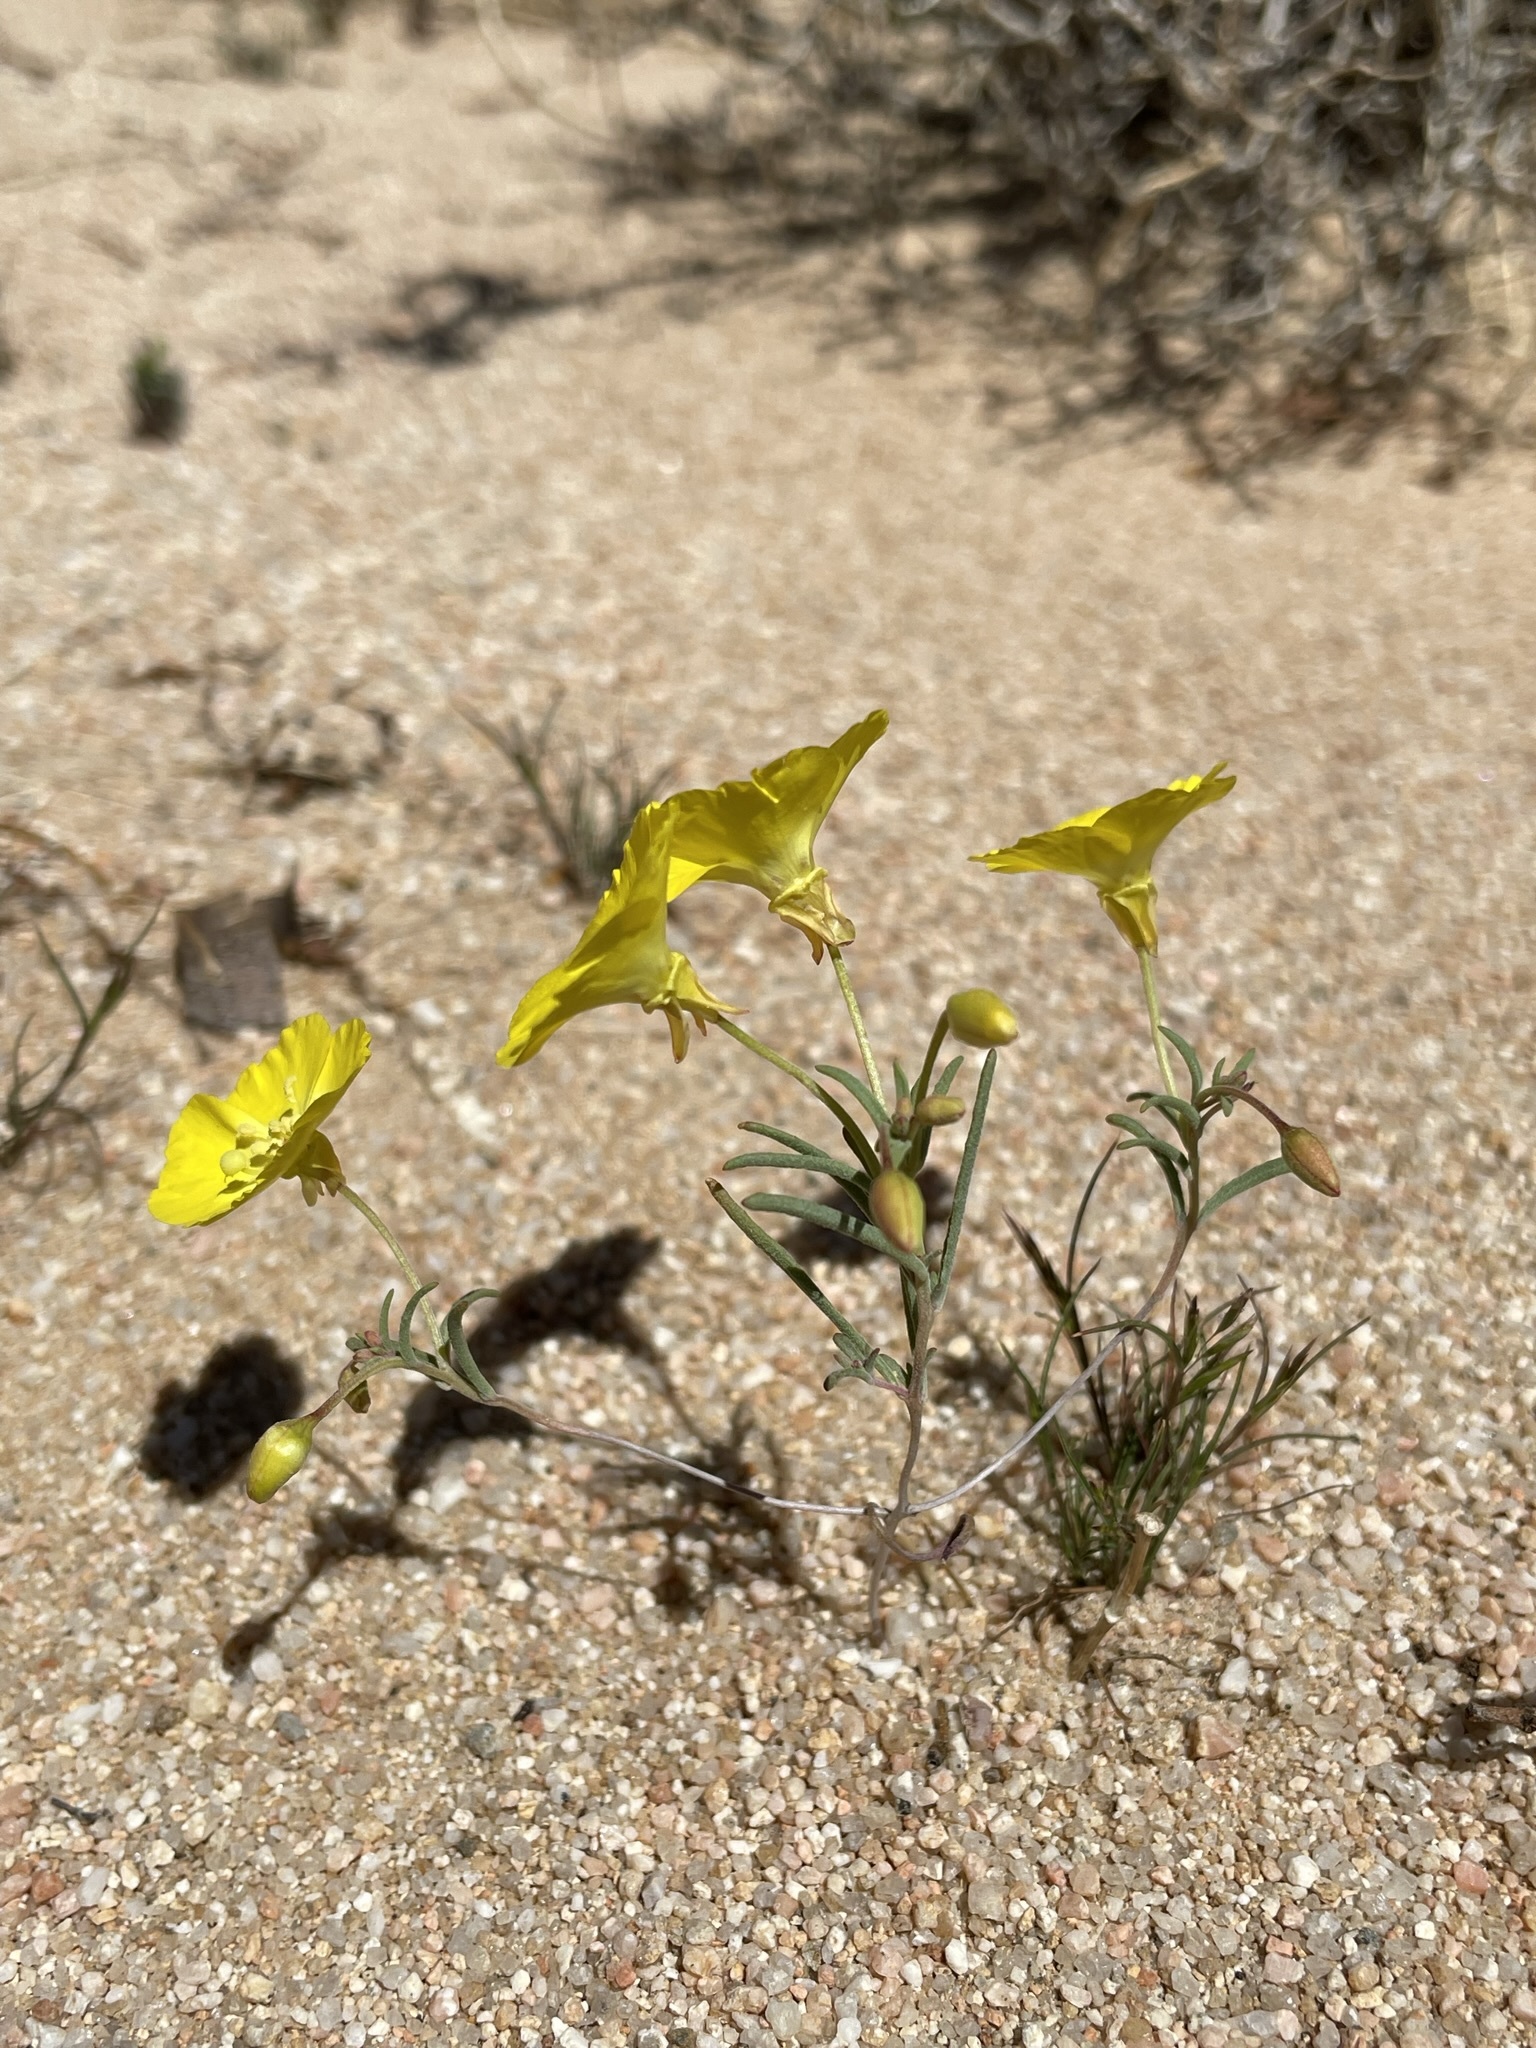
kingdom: Plantae
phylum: Tracheophyta
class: Magnoliopsida
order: Myrtales
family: Onagraceae
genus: Camissonia
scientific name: Camissonia campestris
